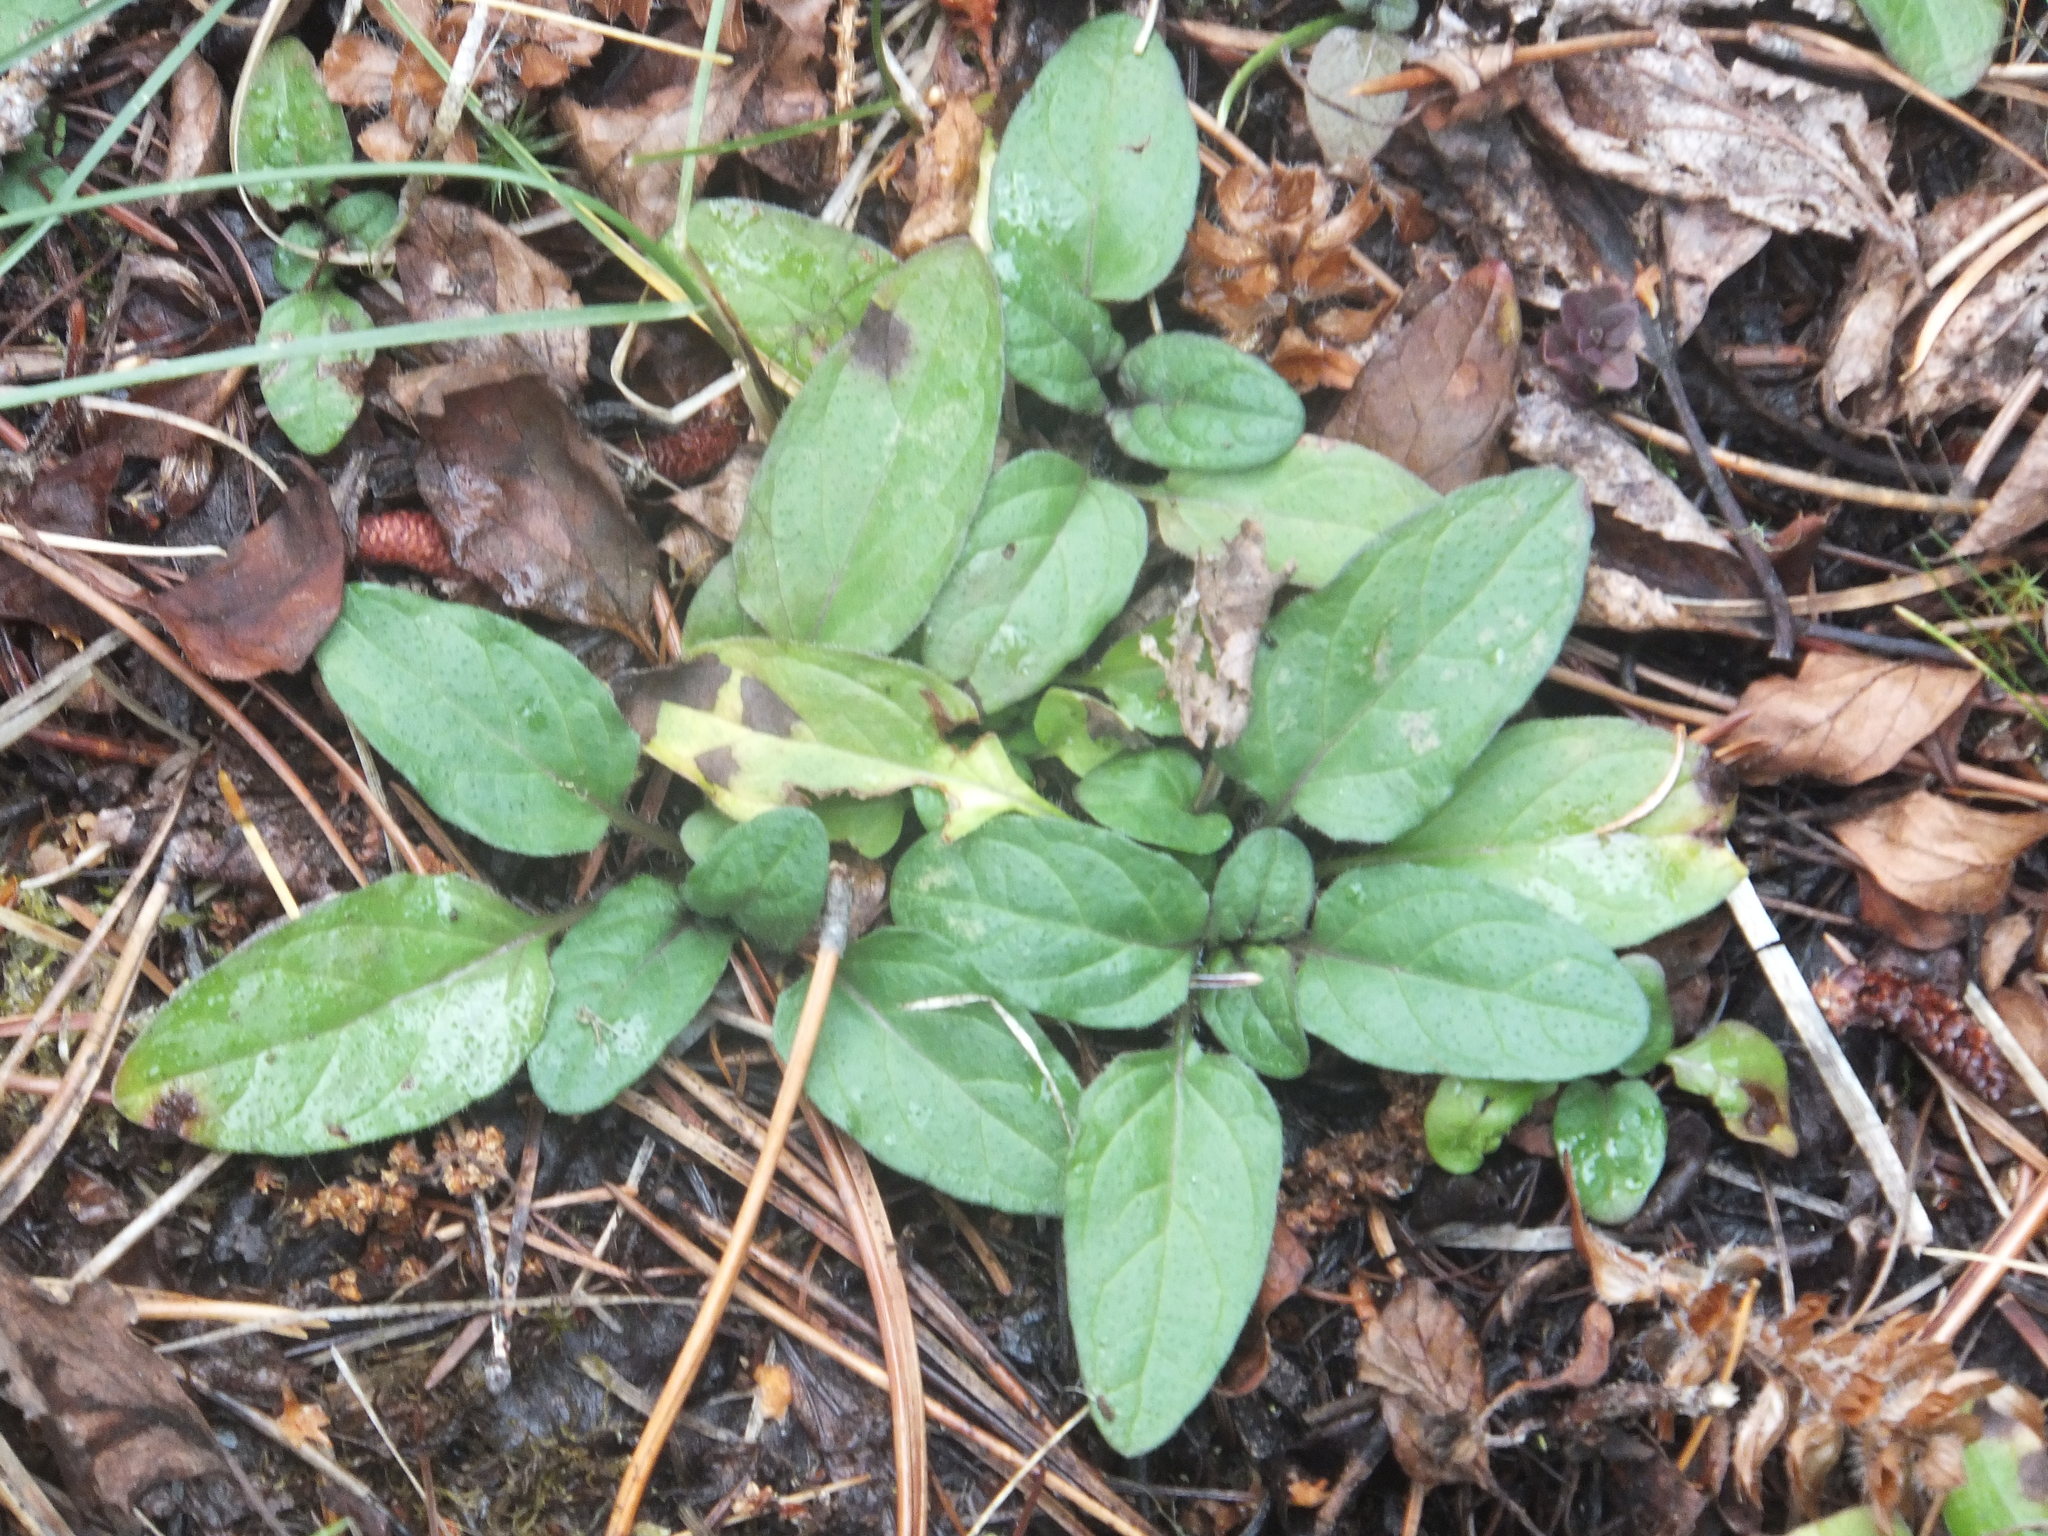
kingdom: Plantae
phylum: Tracheophyta
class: Magnoliopsida
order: Lamiales
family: Lamiaceae
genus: Prunella
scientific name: Prunella vulgaris
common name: Heal-all
